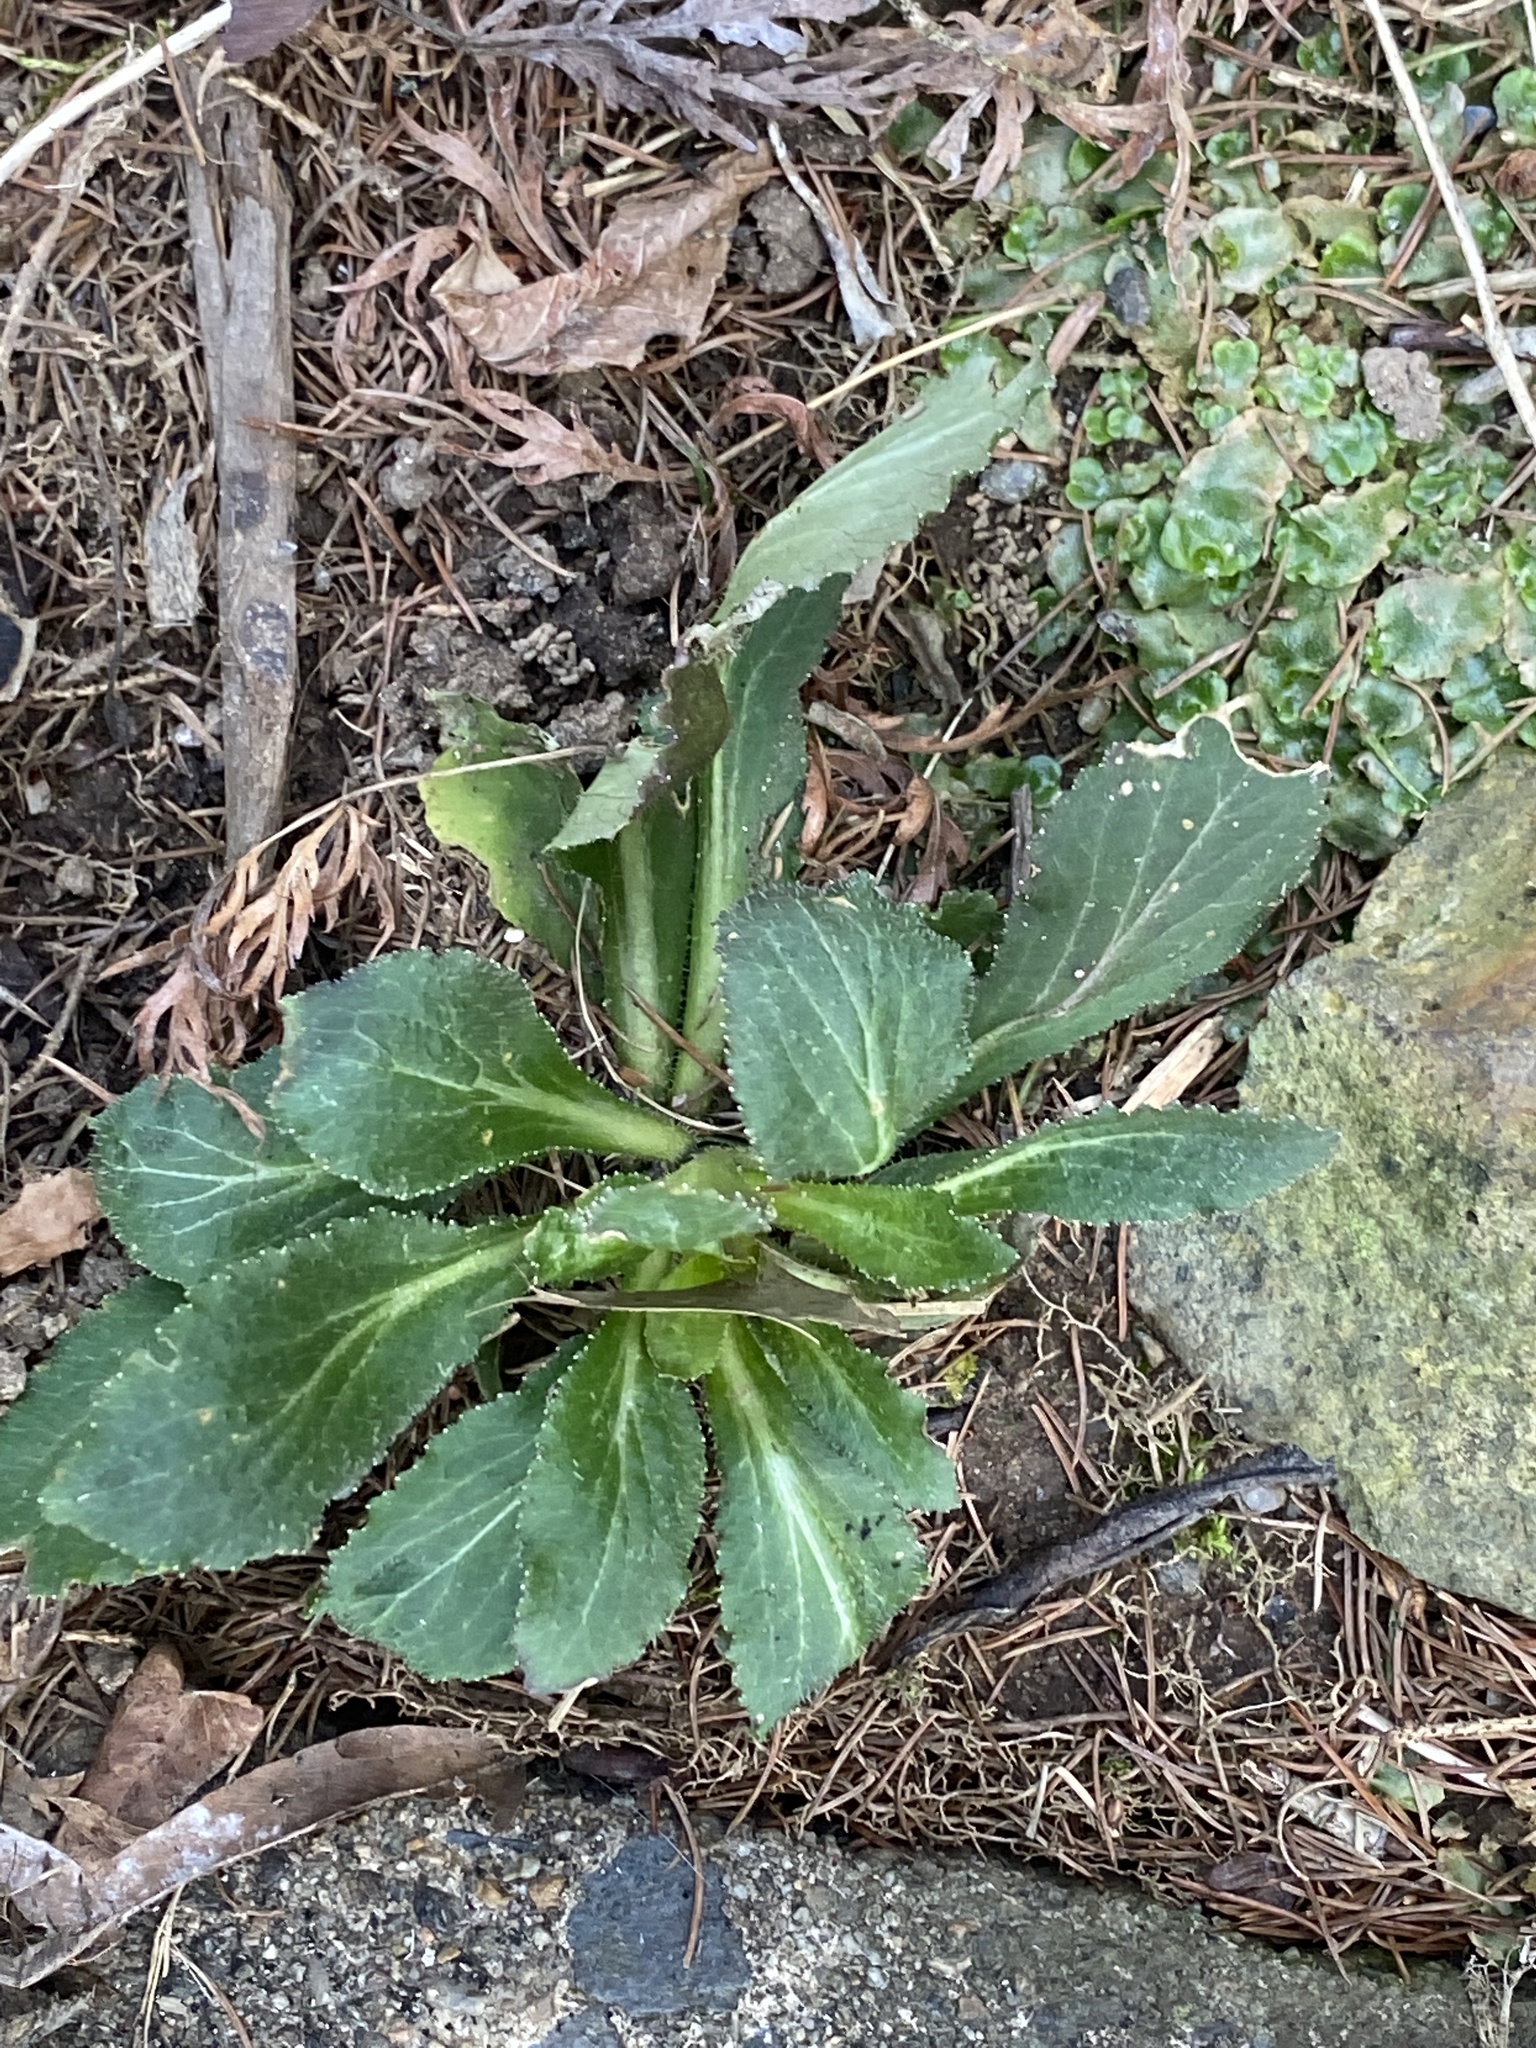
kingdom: Plantae
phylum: Tracheophyta
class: Magnoliopsida
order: Asterales
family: Campanulaceae
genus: Lobelia
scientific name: Lobelia inflata
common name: Indian tobacco
